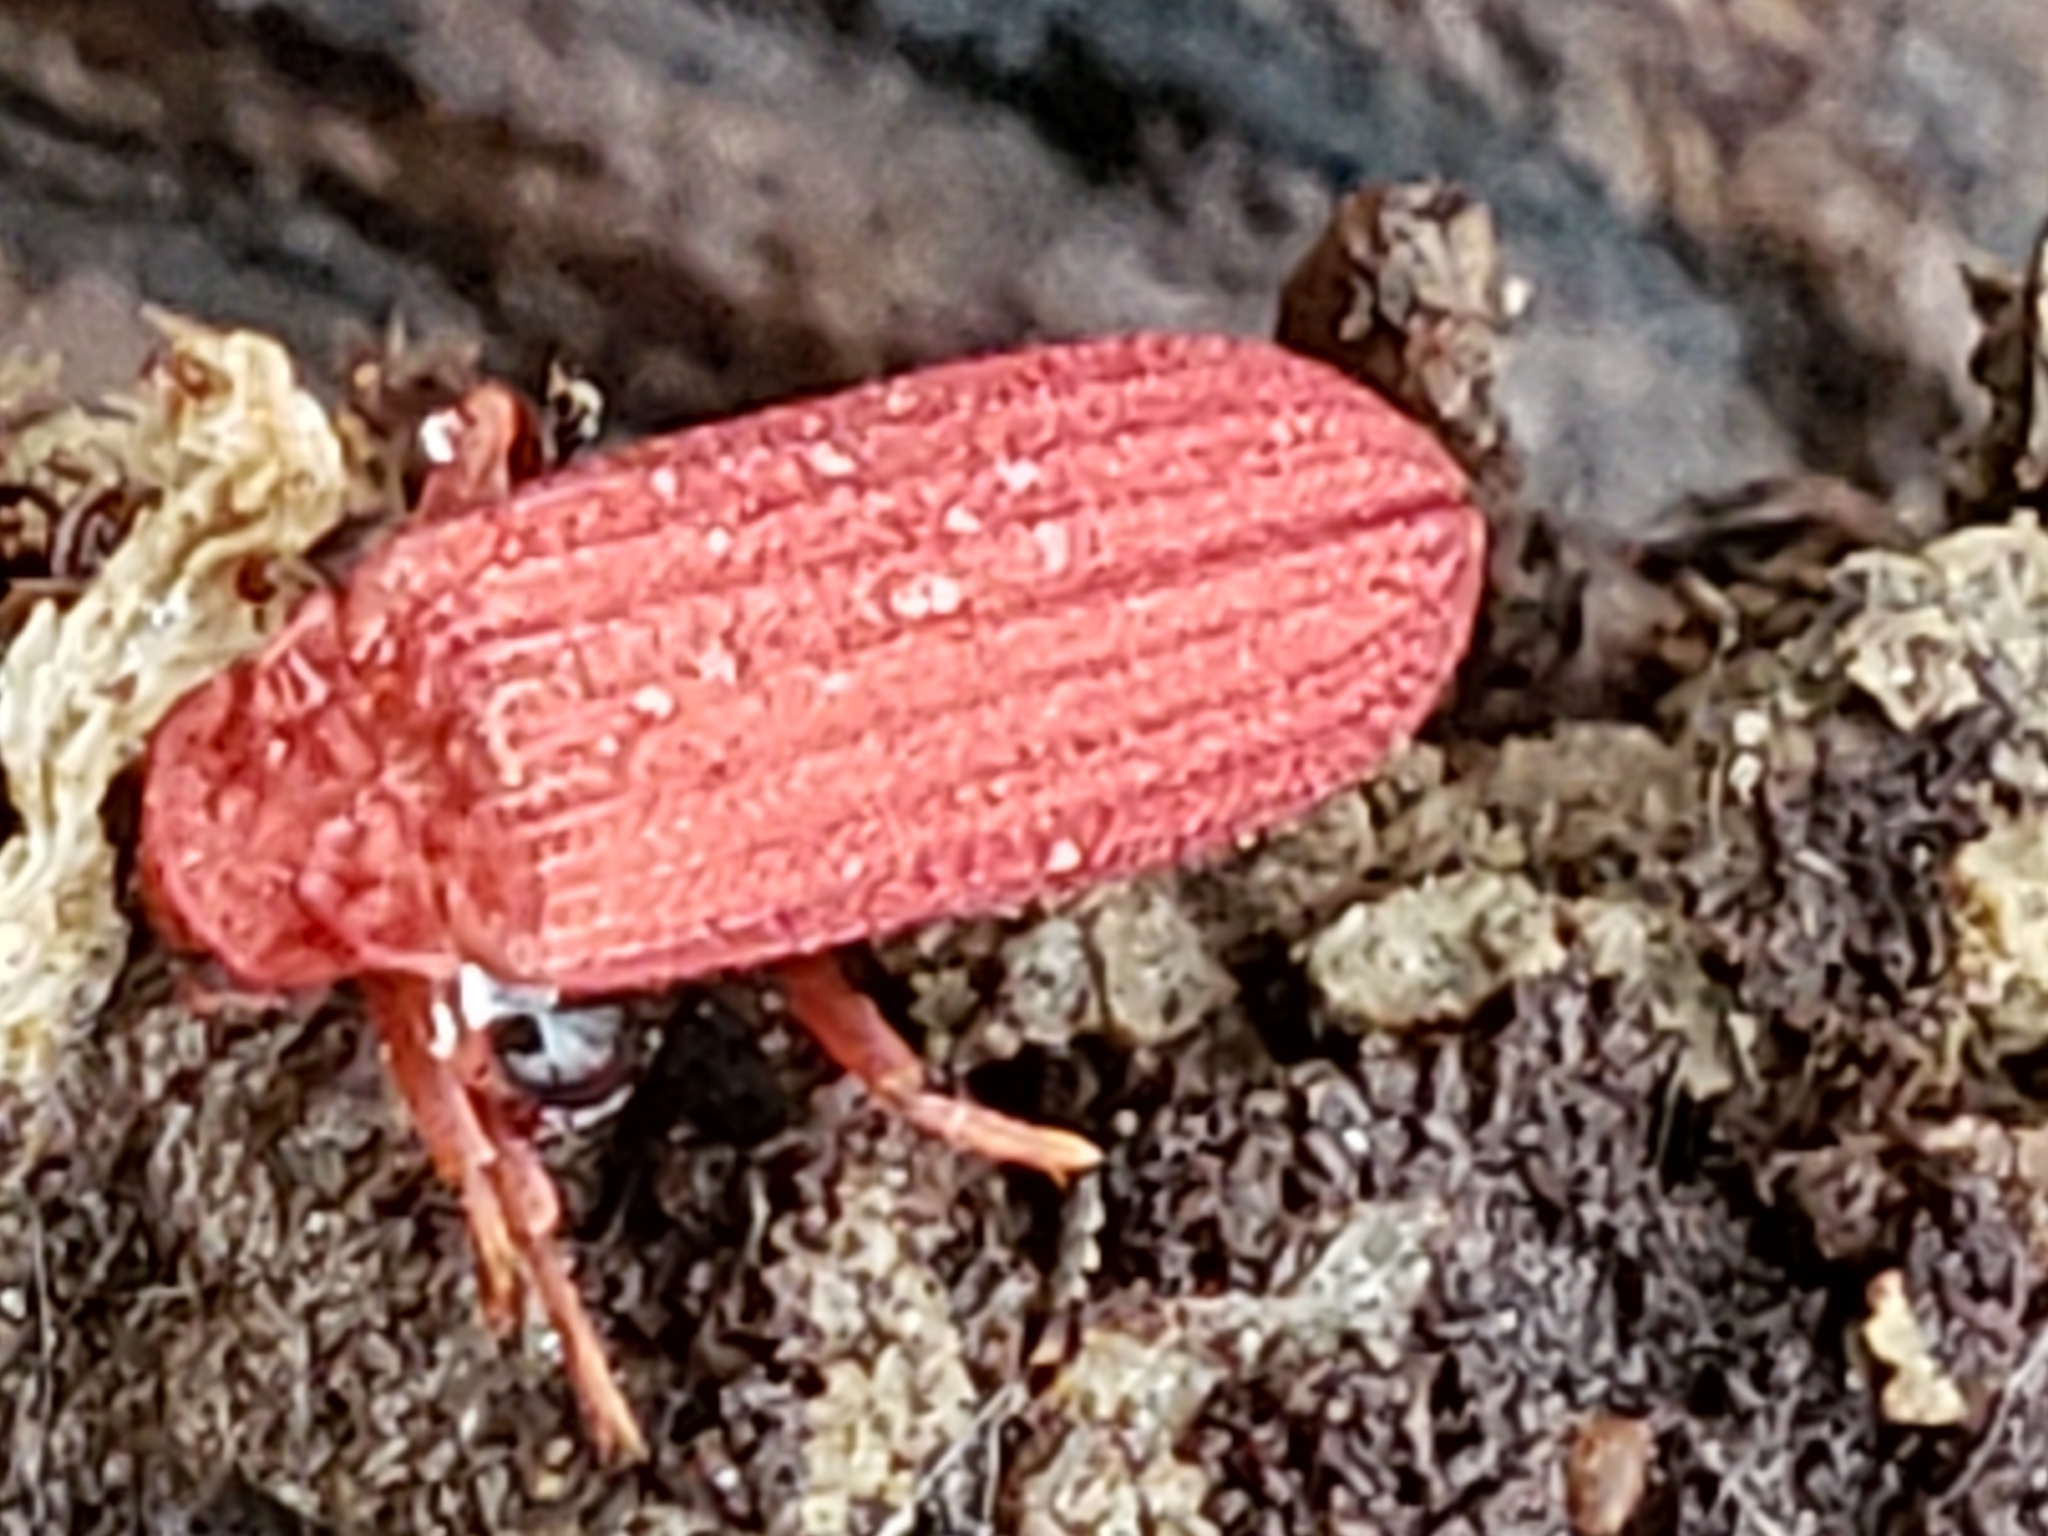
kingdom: Animalia
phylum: Arthropoda
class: Insecta
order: Coleoptera
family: Lycidae
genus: Punicealis
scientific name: Punicealis
